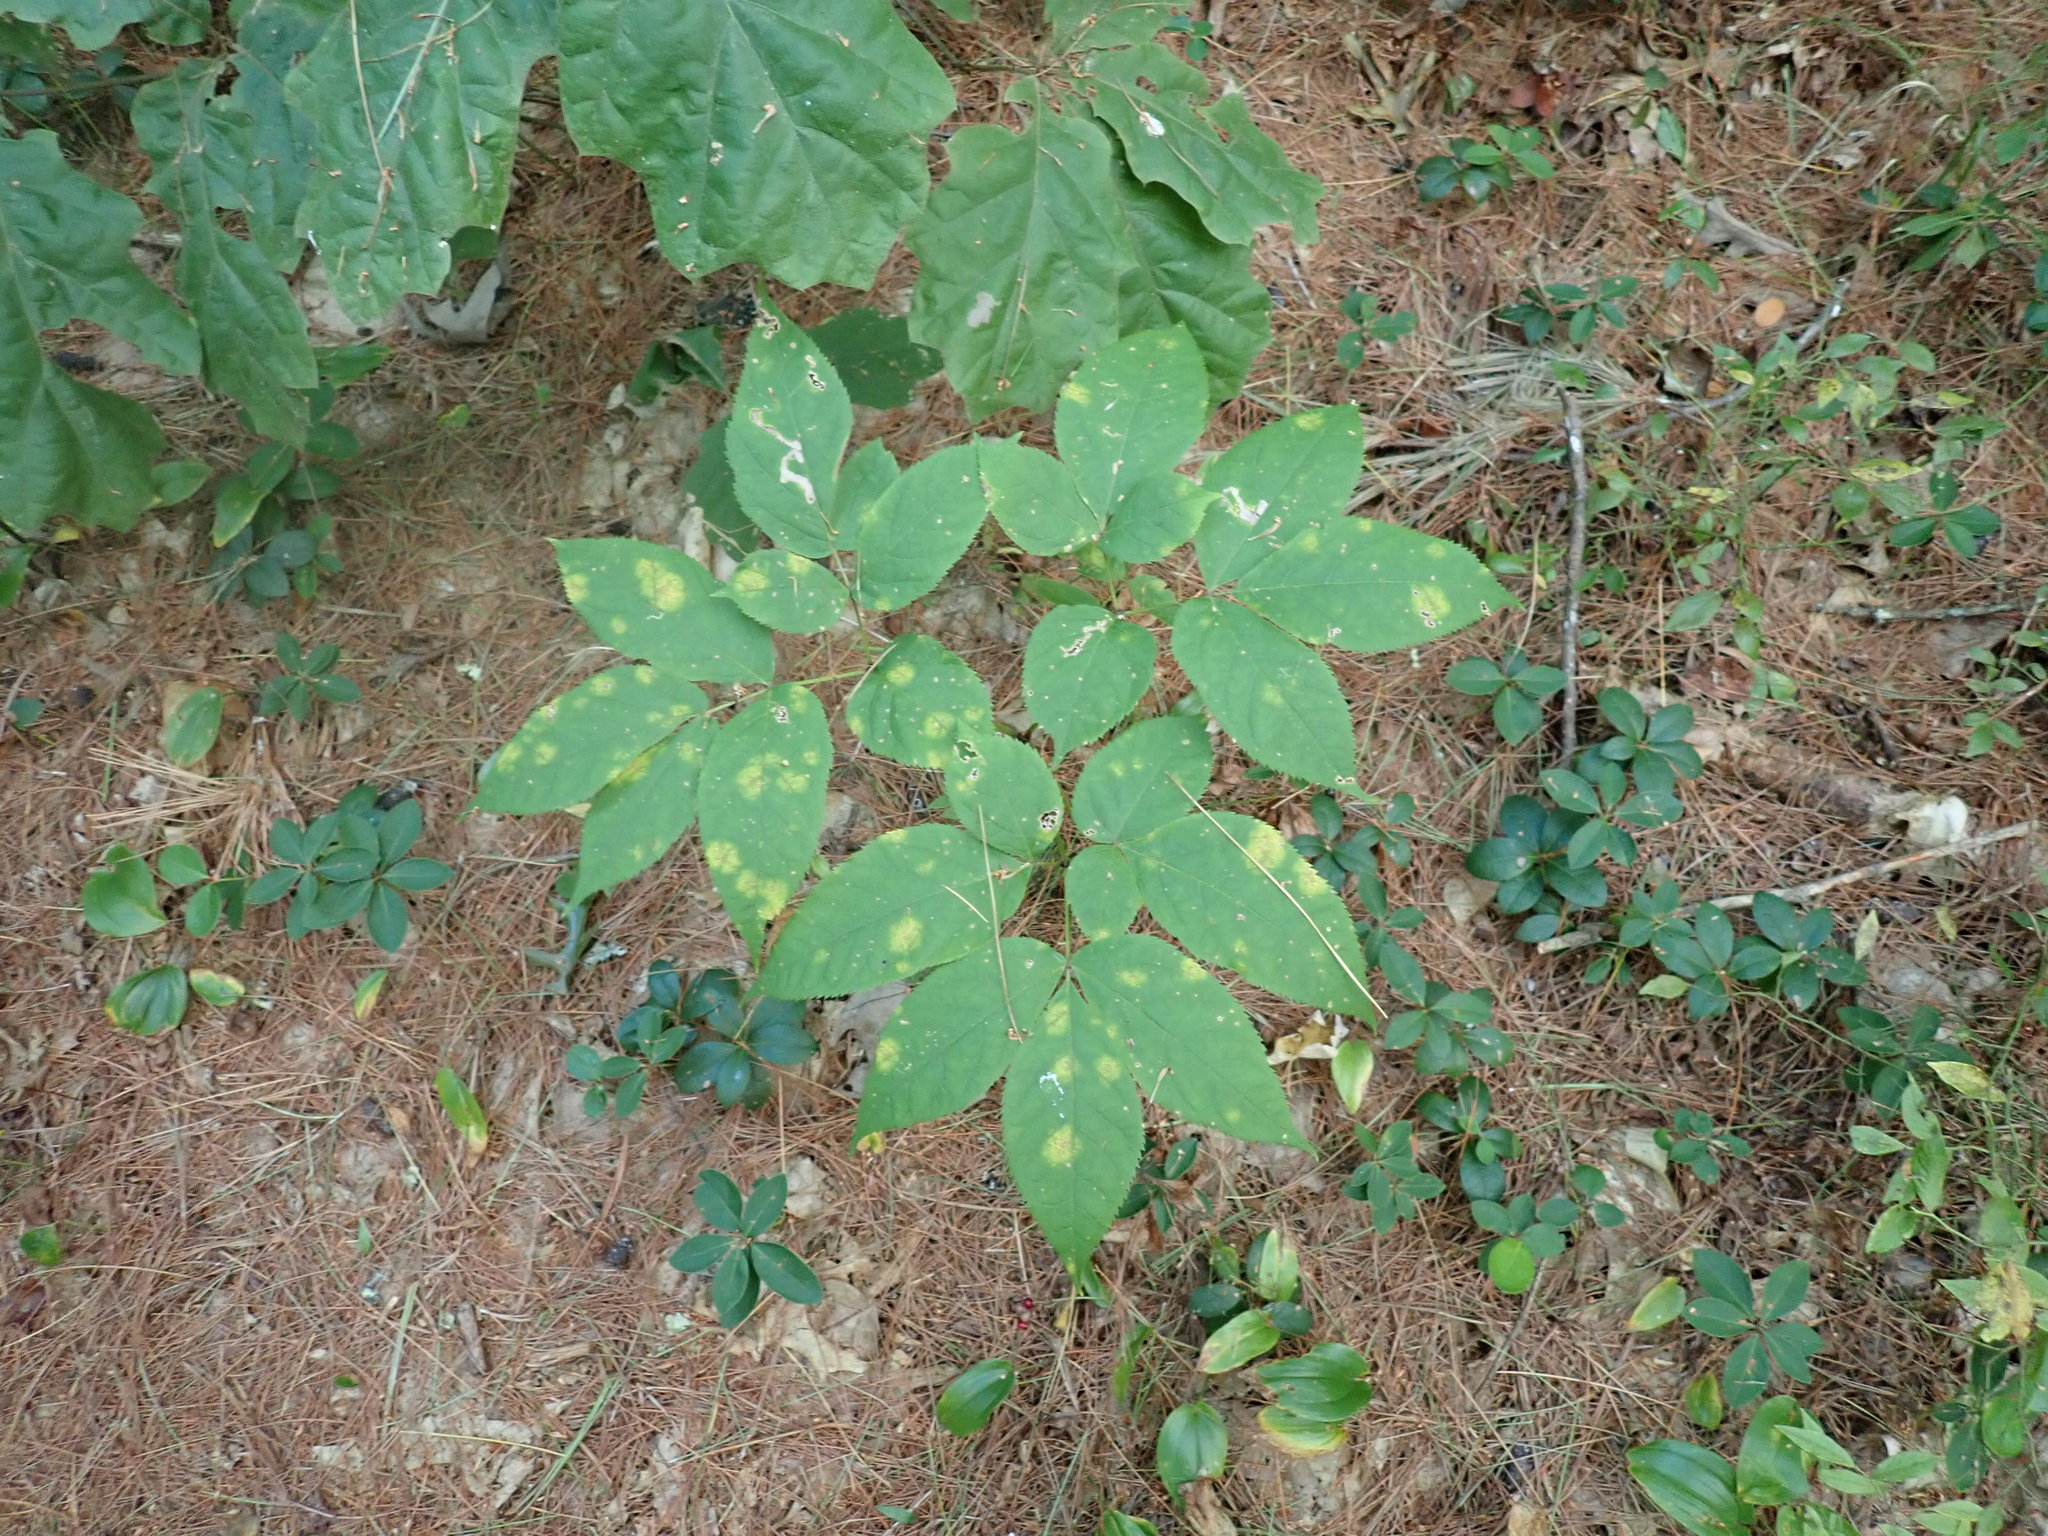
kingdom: Plantae
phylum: Tracheophyta
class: Magnoliopsida
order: Apiales
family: Araliaceae
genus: Aralia
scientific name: Aralia nudicaulis
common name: Wild sarsaparilla
